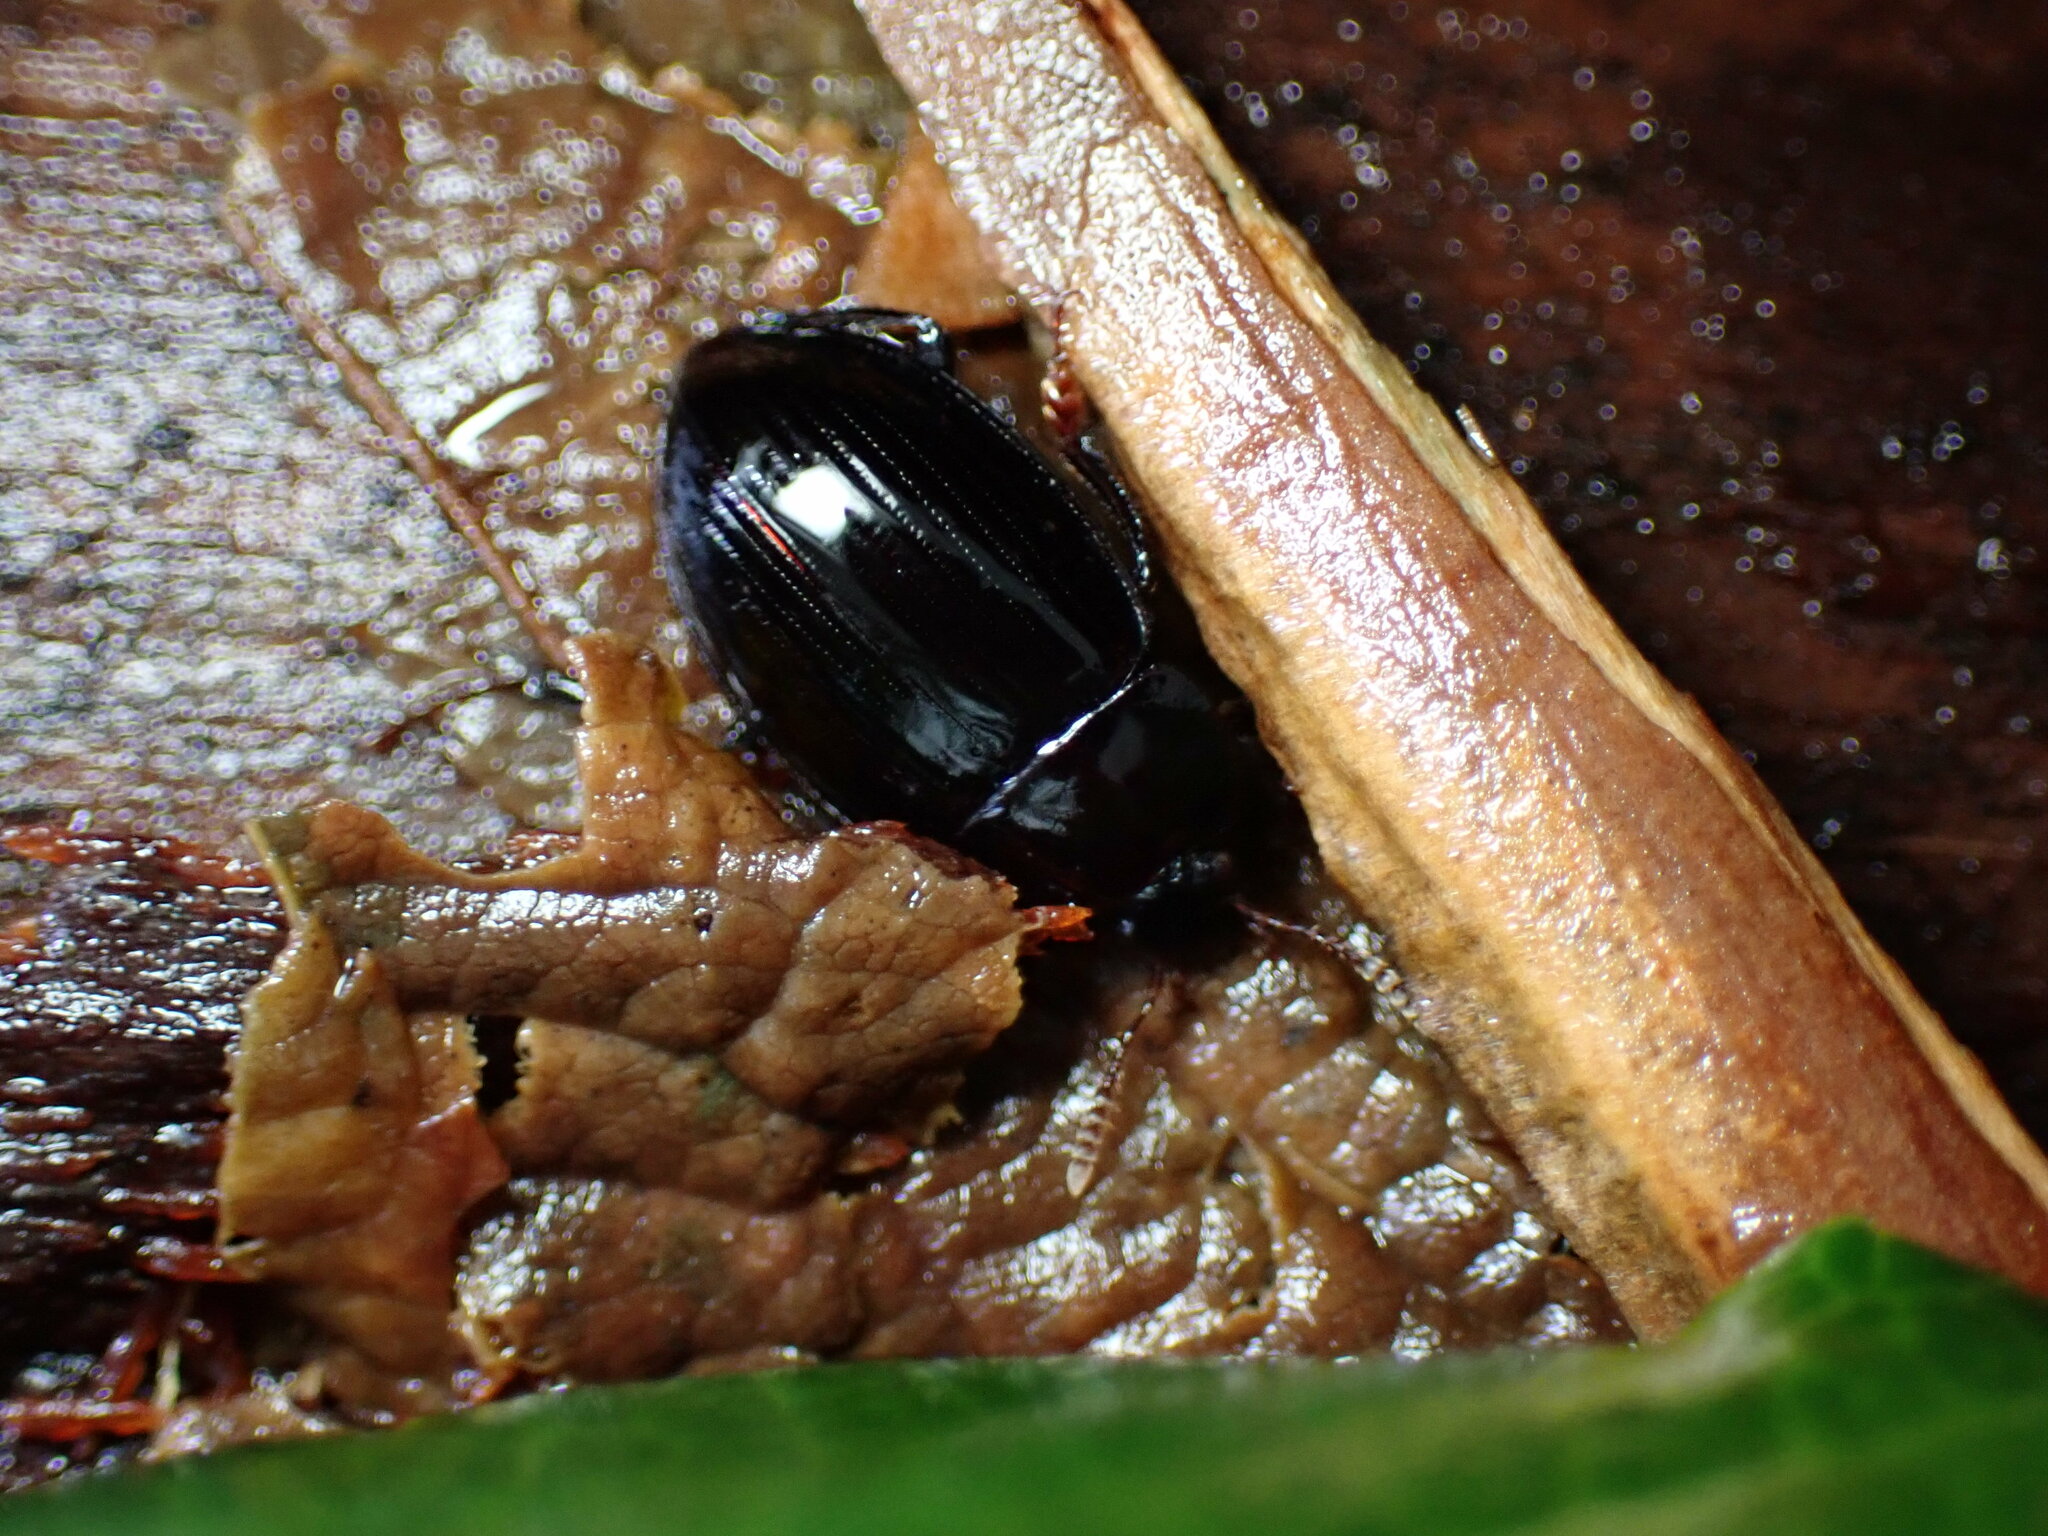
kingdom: Animalia
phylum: Arthropoda
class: Insecta
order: Coleoptera
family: Agyrtidae
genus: Necrophilus
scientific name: Necrophilus hydrophiloides
